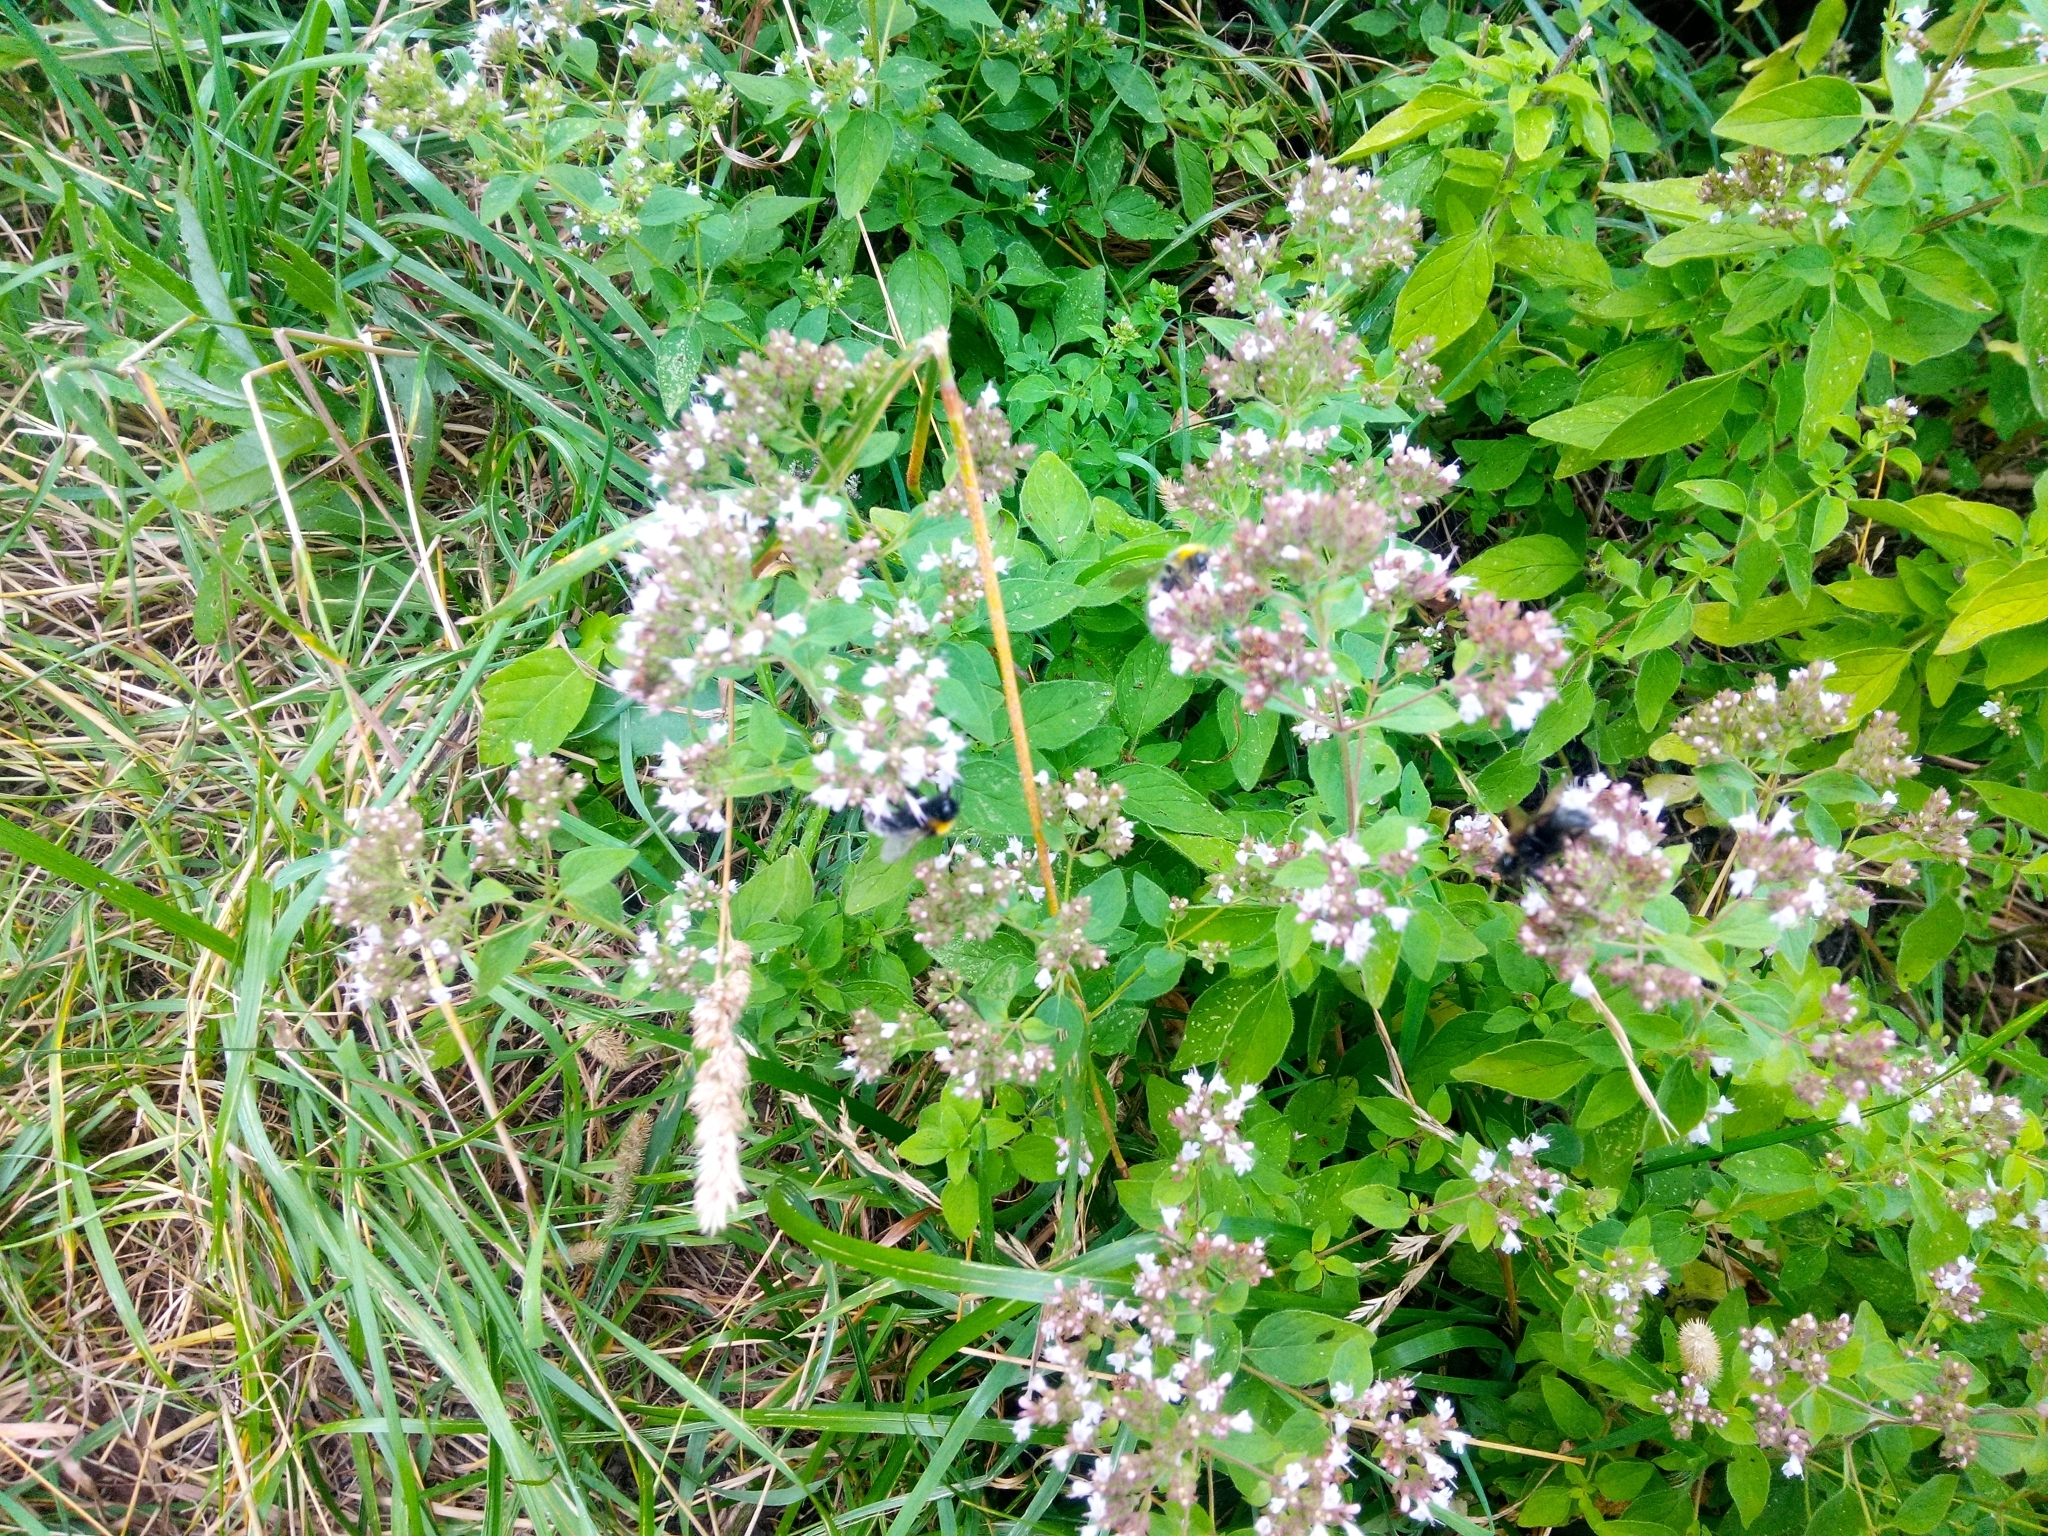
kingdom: Plantae
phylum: Tracheophyta
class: Magnoliopsida
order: Lamiales
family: Lamiaceae
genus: Origanum
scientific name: Origanum vulgare
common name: Wild marjoram
